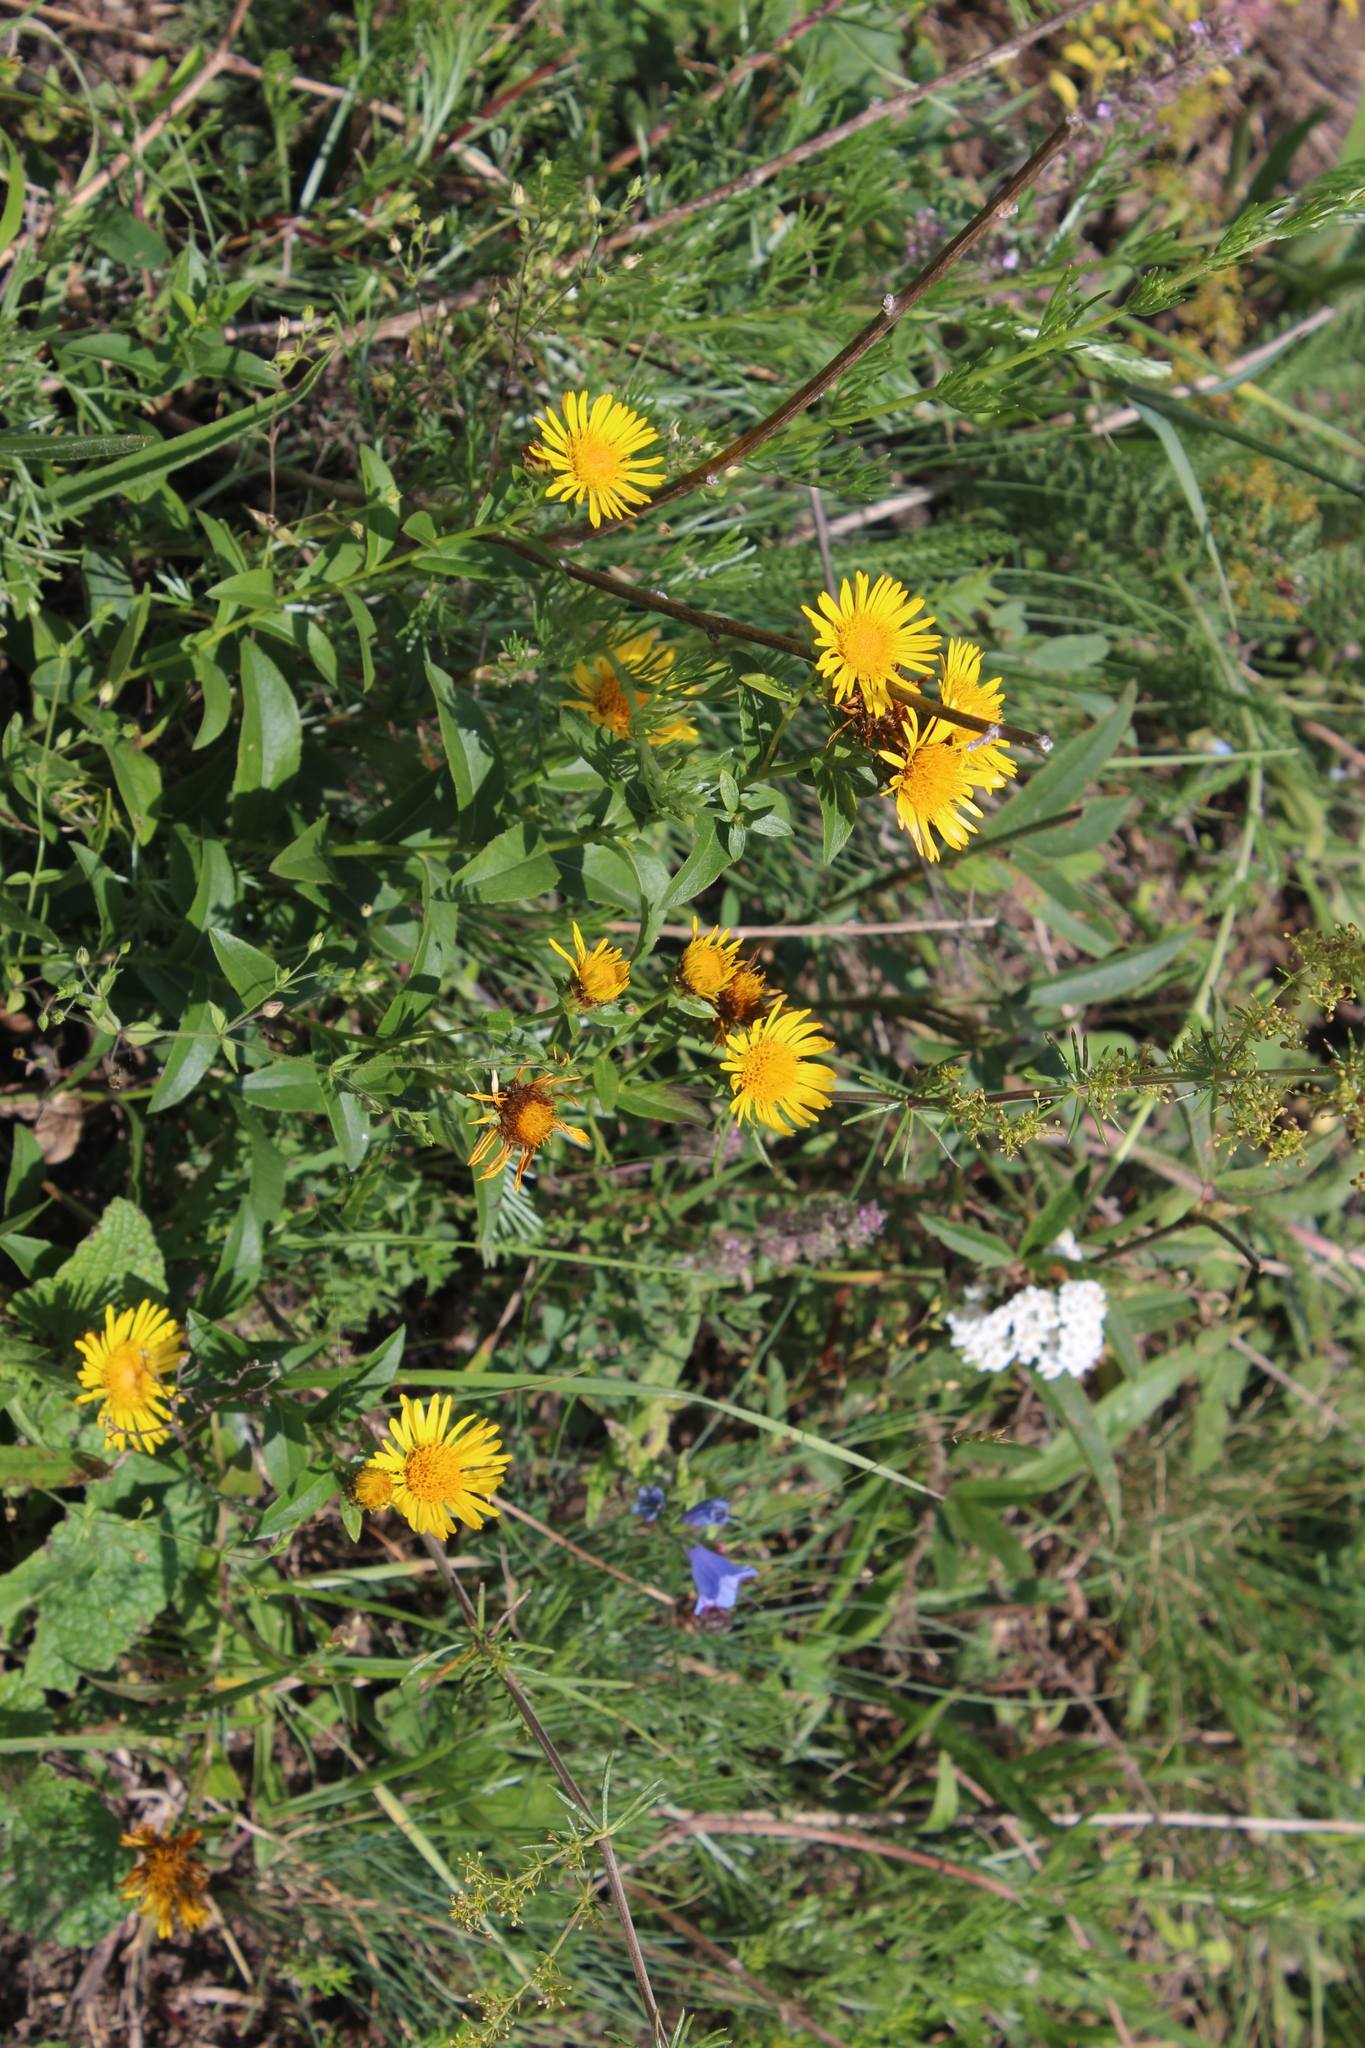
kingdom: Plantae
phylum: Tracheophyta
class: Magnoliopsida
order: Asterales
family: Asteraceae
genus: Pentanema
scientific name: Pentanema asperum
